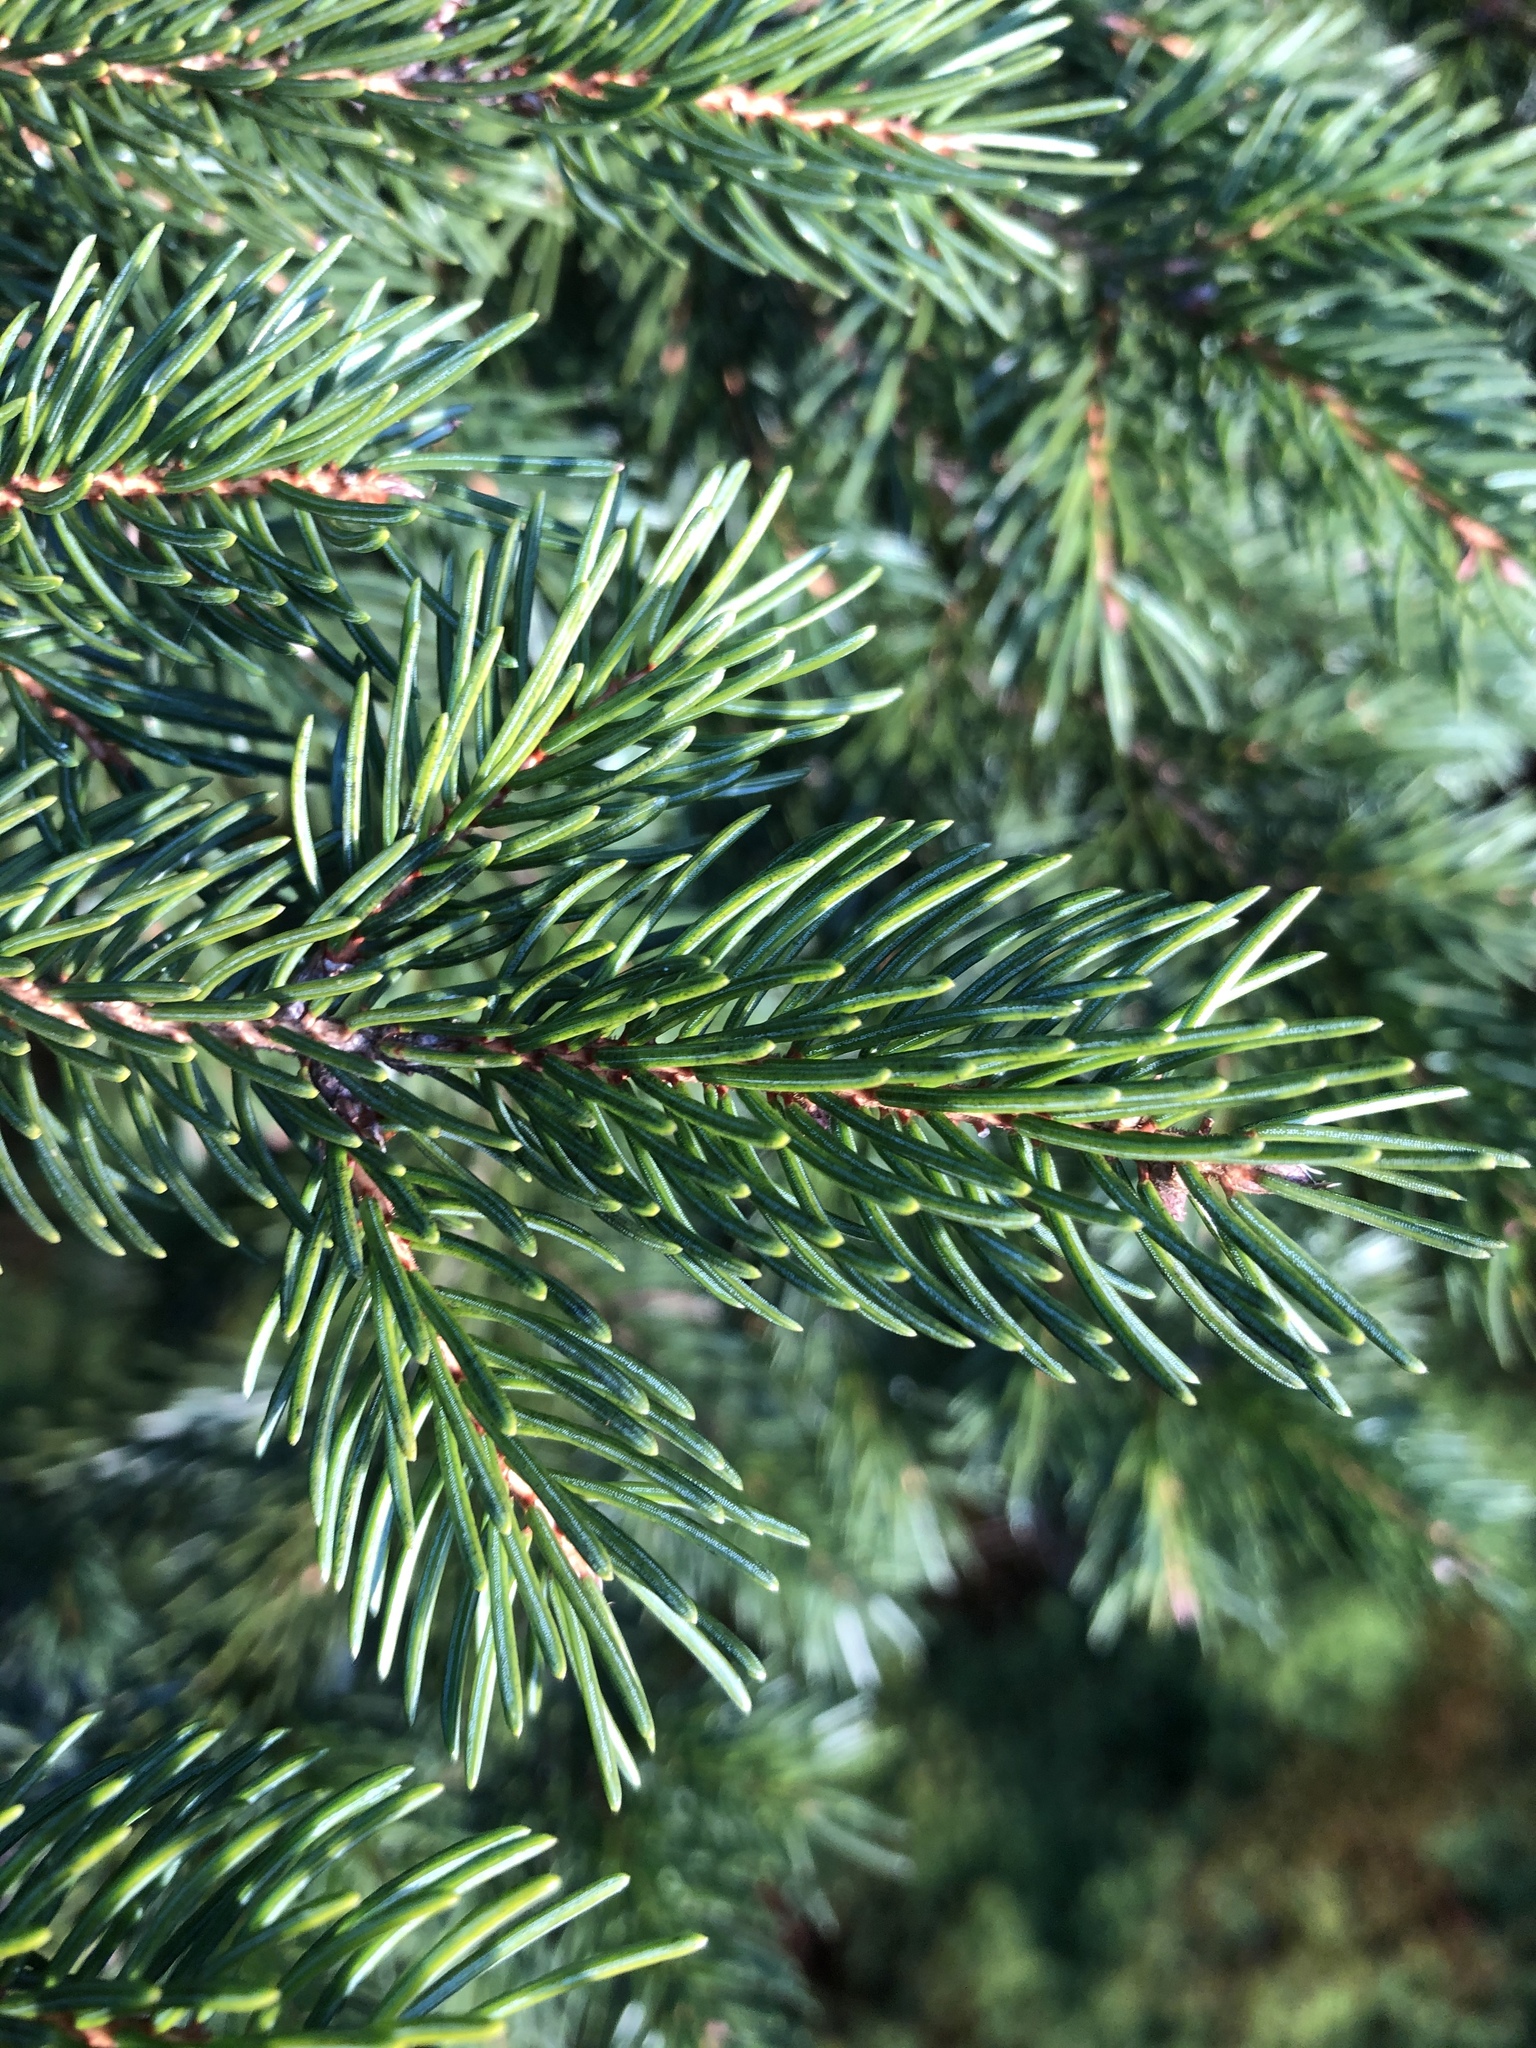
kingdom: Plantae
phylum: Tracheophyta
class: Pinopsida
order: Pinales
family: Pinaceae
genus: Picea
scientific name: Picea rubens
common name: Red spruce
